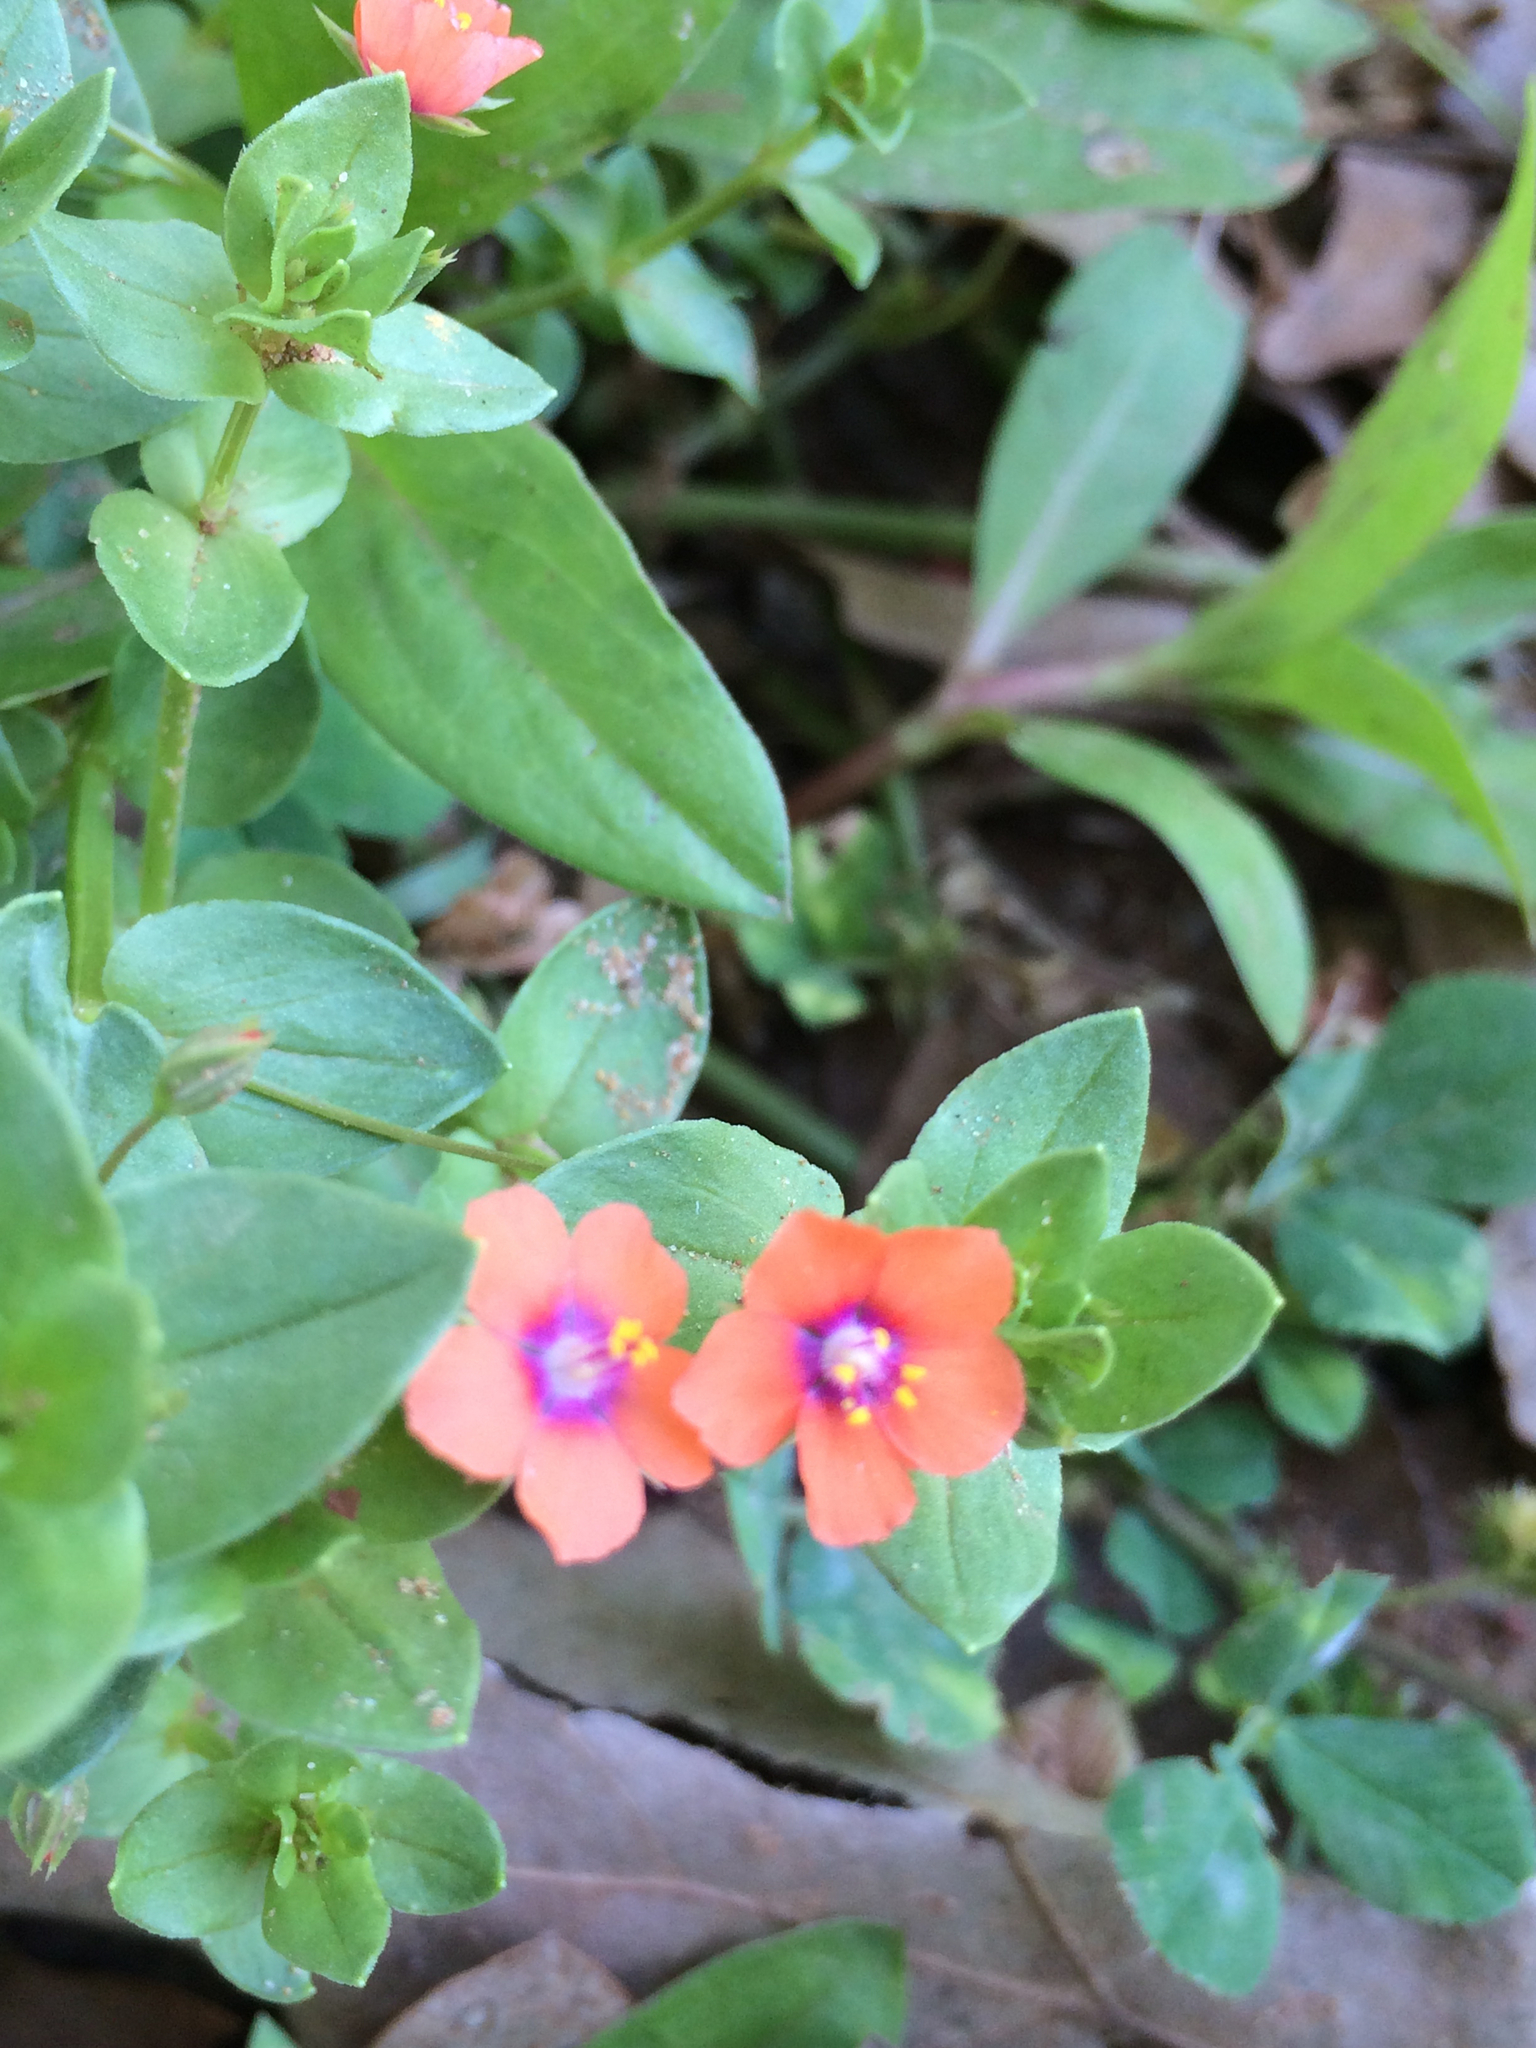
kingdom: Plantae
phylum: Tracheophyta
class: Magnoliopsida
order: Ericales
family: Primulaceae
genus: Lysimachia
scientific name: Lysimachia arvensis
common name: Scarlet pimpernel
